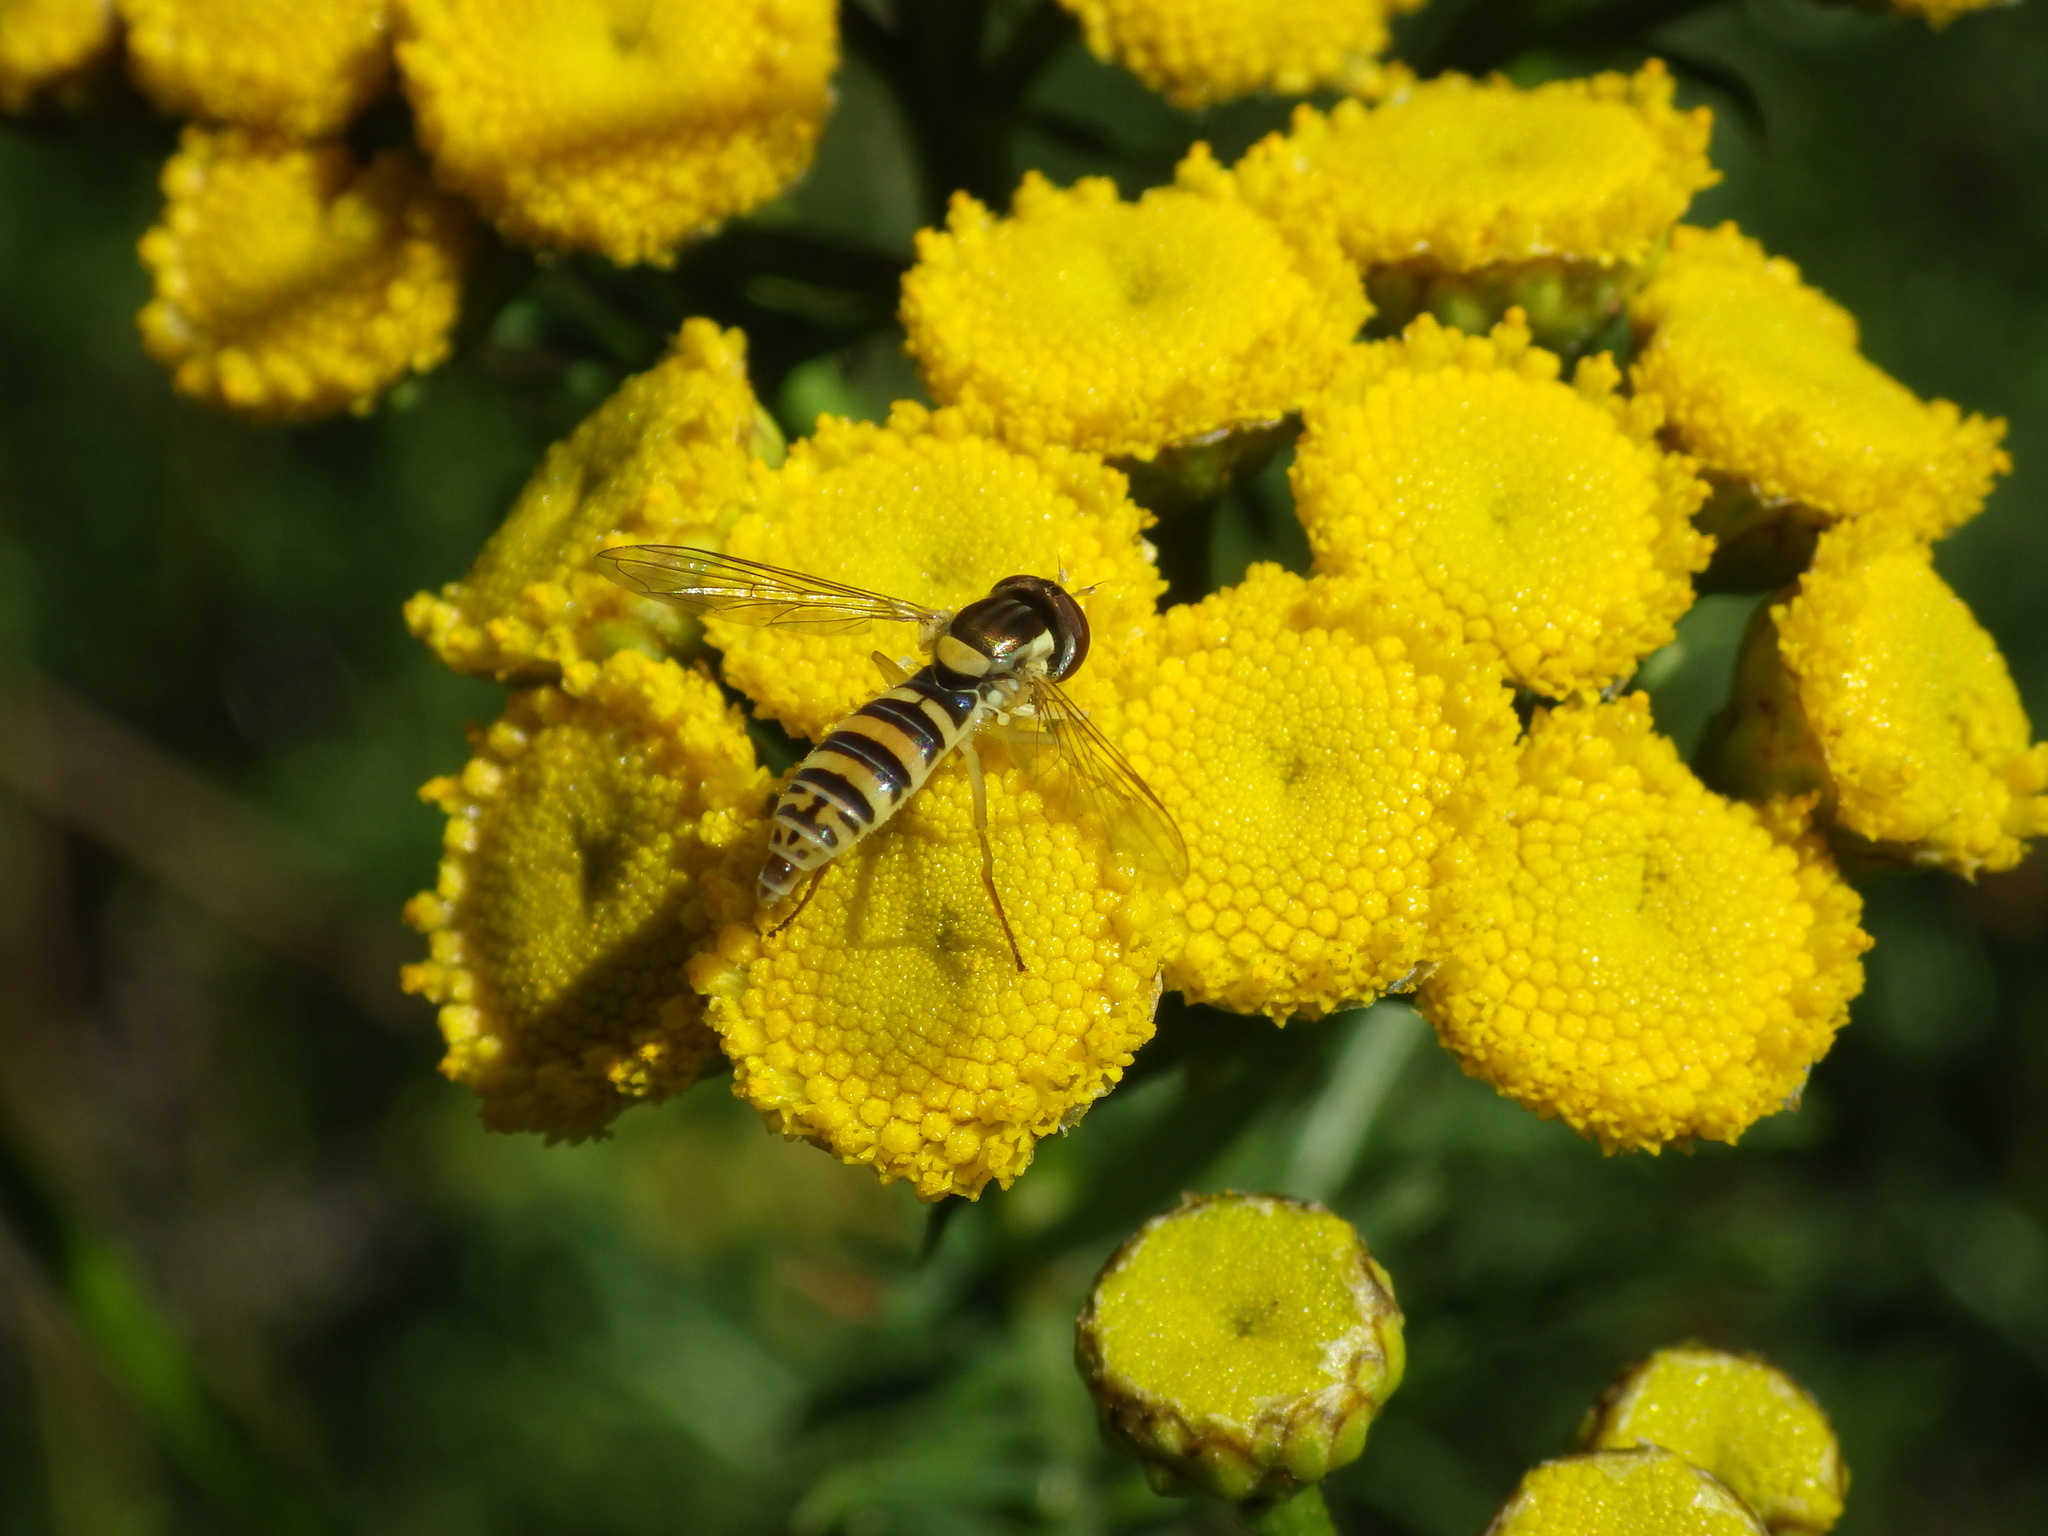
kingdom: Animalia
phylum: Arthropoda
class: Insecta
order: Diptera
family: Syrphidae
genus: Sphaerophoria
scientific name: Sphaerophoria
